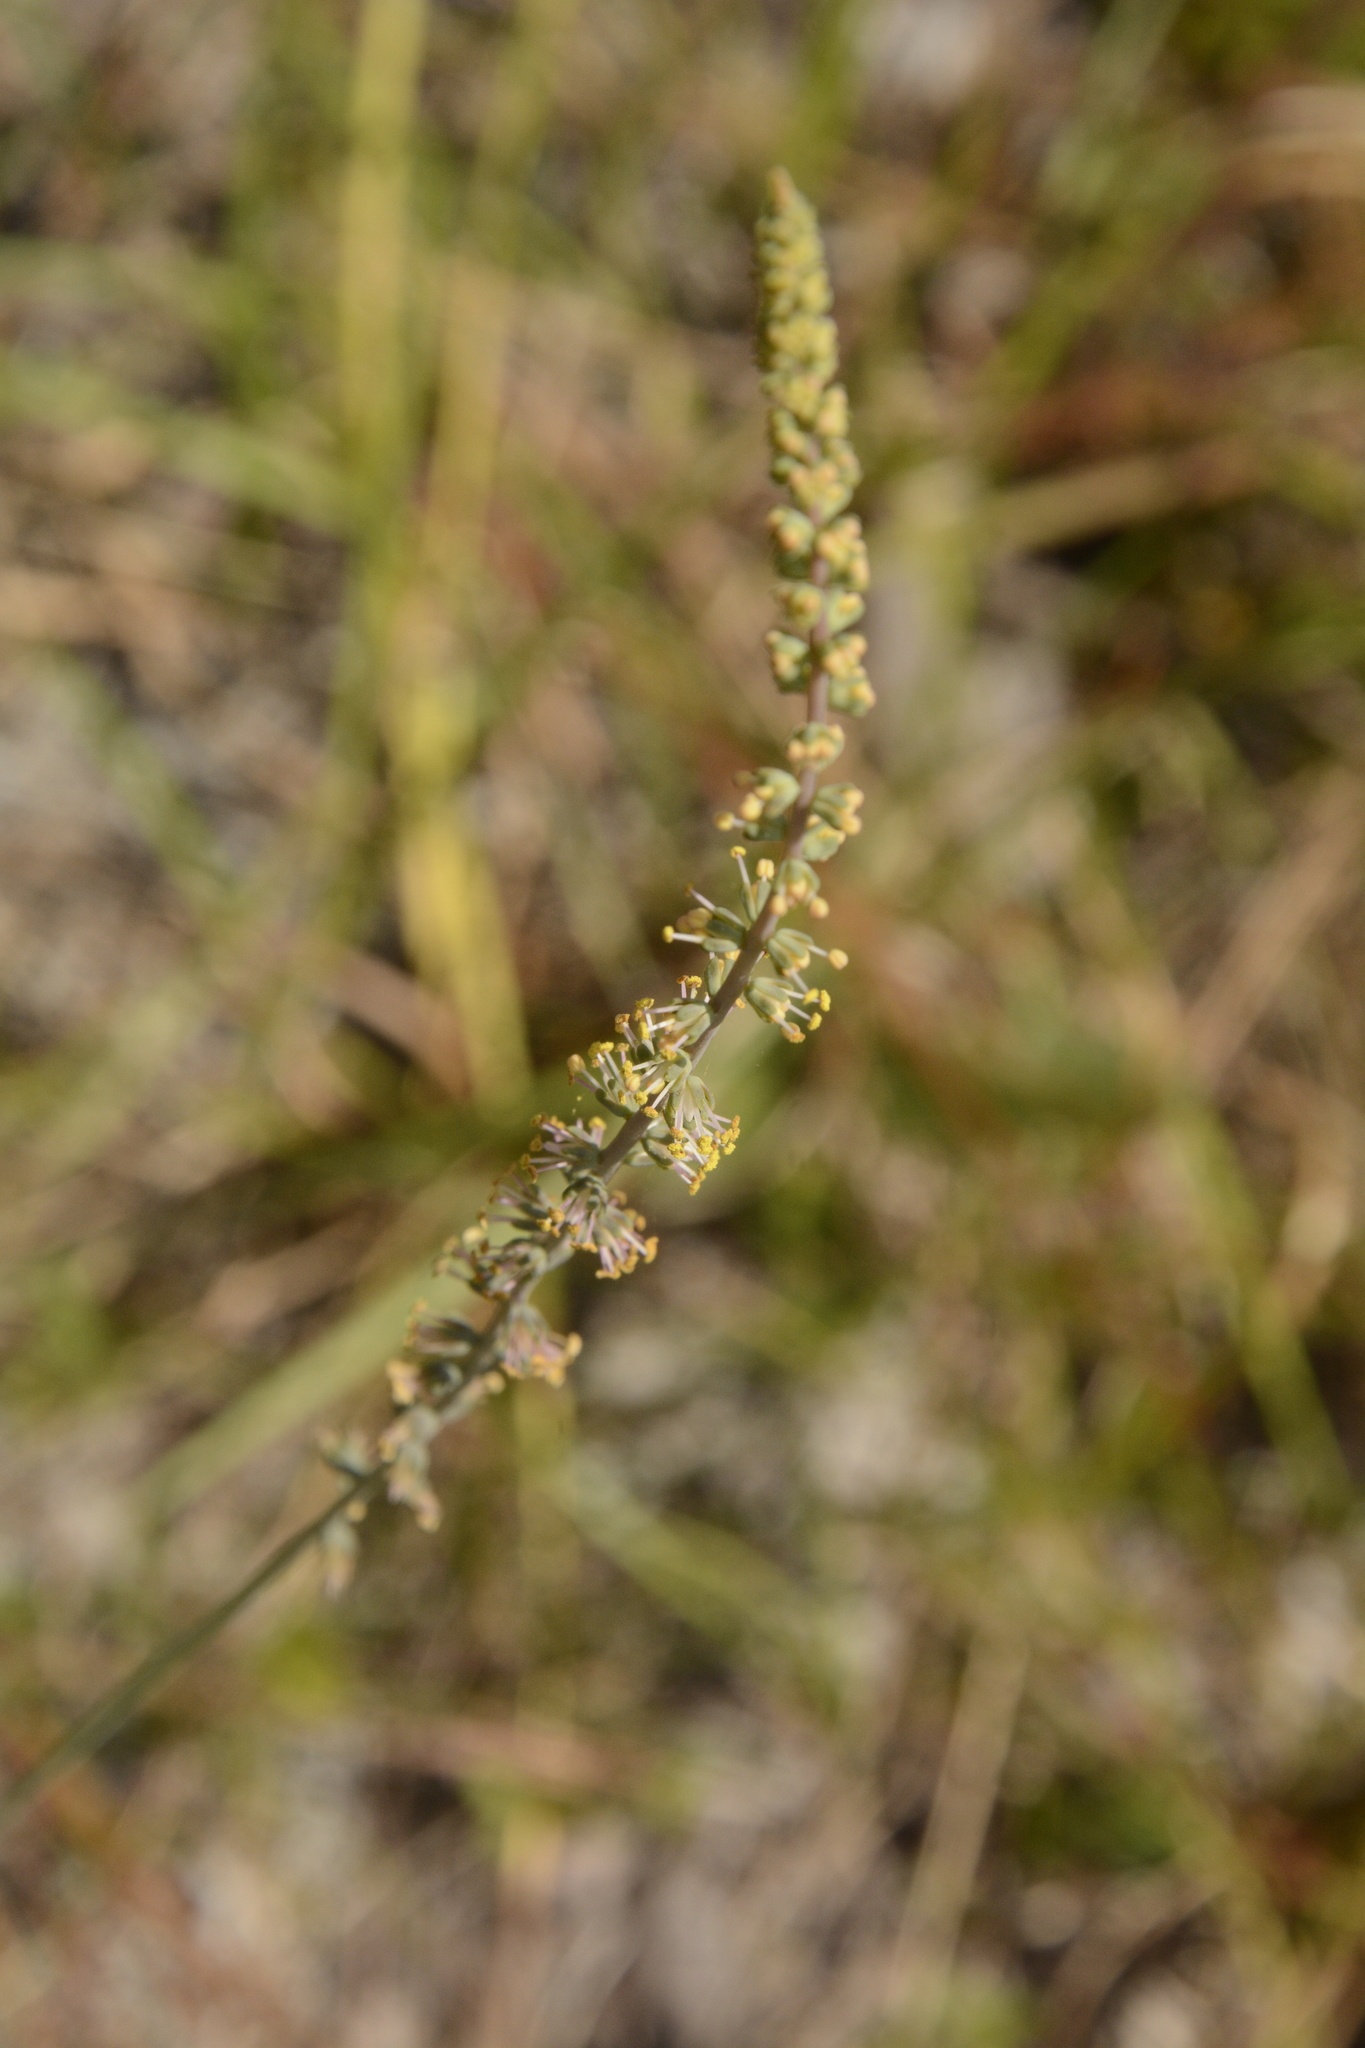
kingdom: Plantae
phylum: Tracheophyta
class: Liliopsida
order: Liliales
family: Melanthiaceae
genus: Schoenocaulon
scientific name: Schoenocaulon dubium
